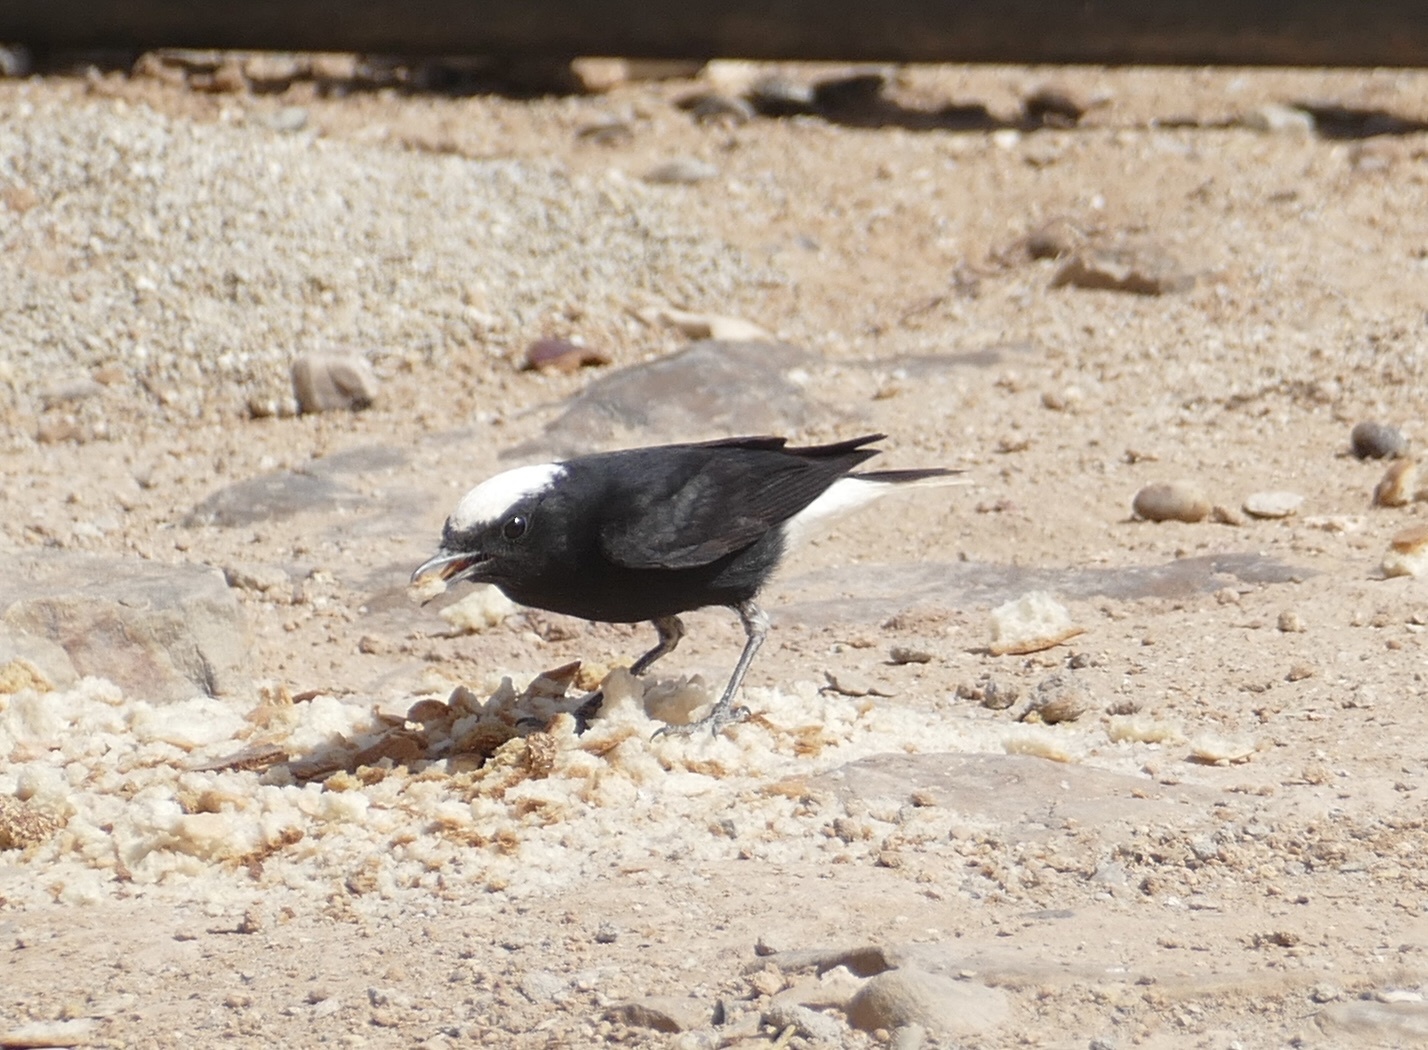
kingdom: Animalia
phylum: Chordata
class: Aves
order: Passeriformes
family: Muscicapidae
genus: Oenanthe
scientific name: Oenanthe leucopyga
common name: White-crowned wheatear
